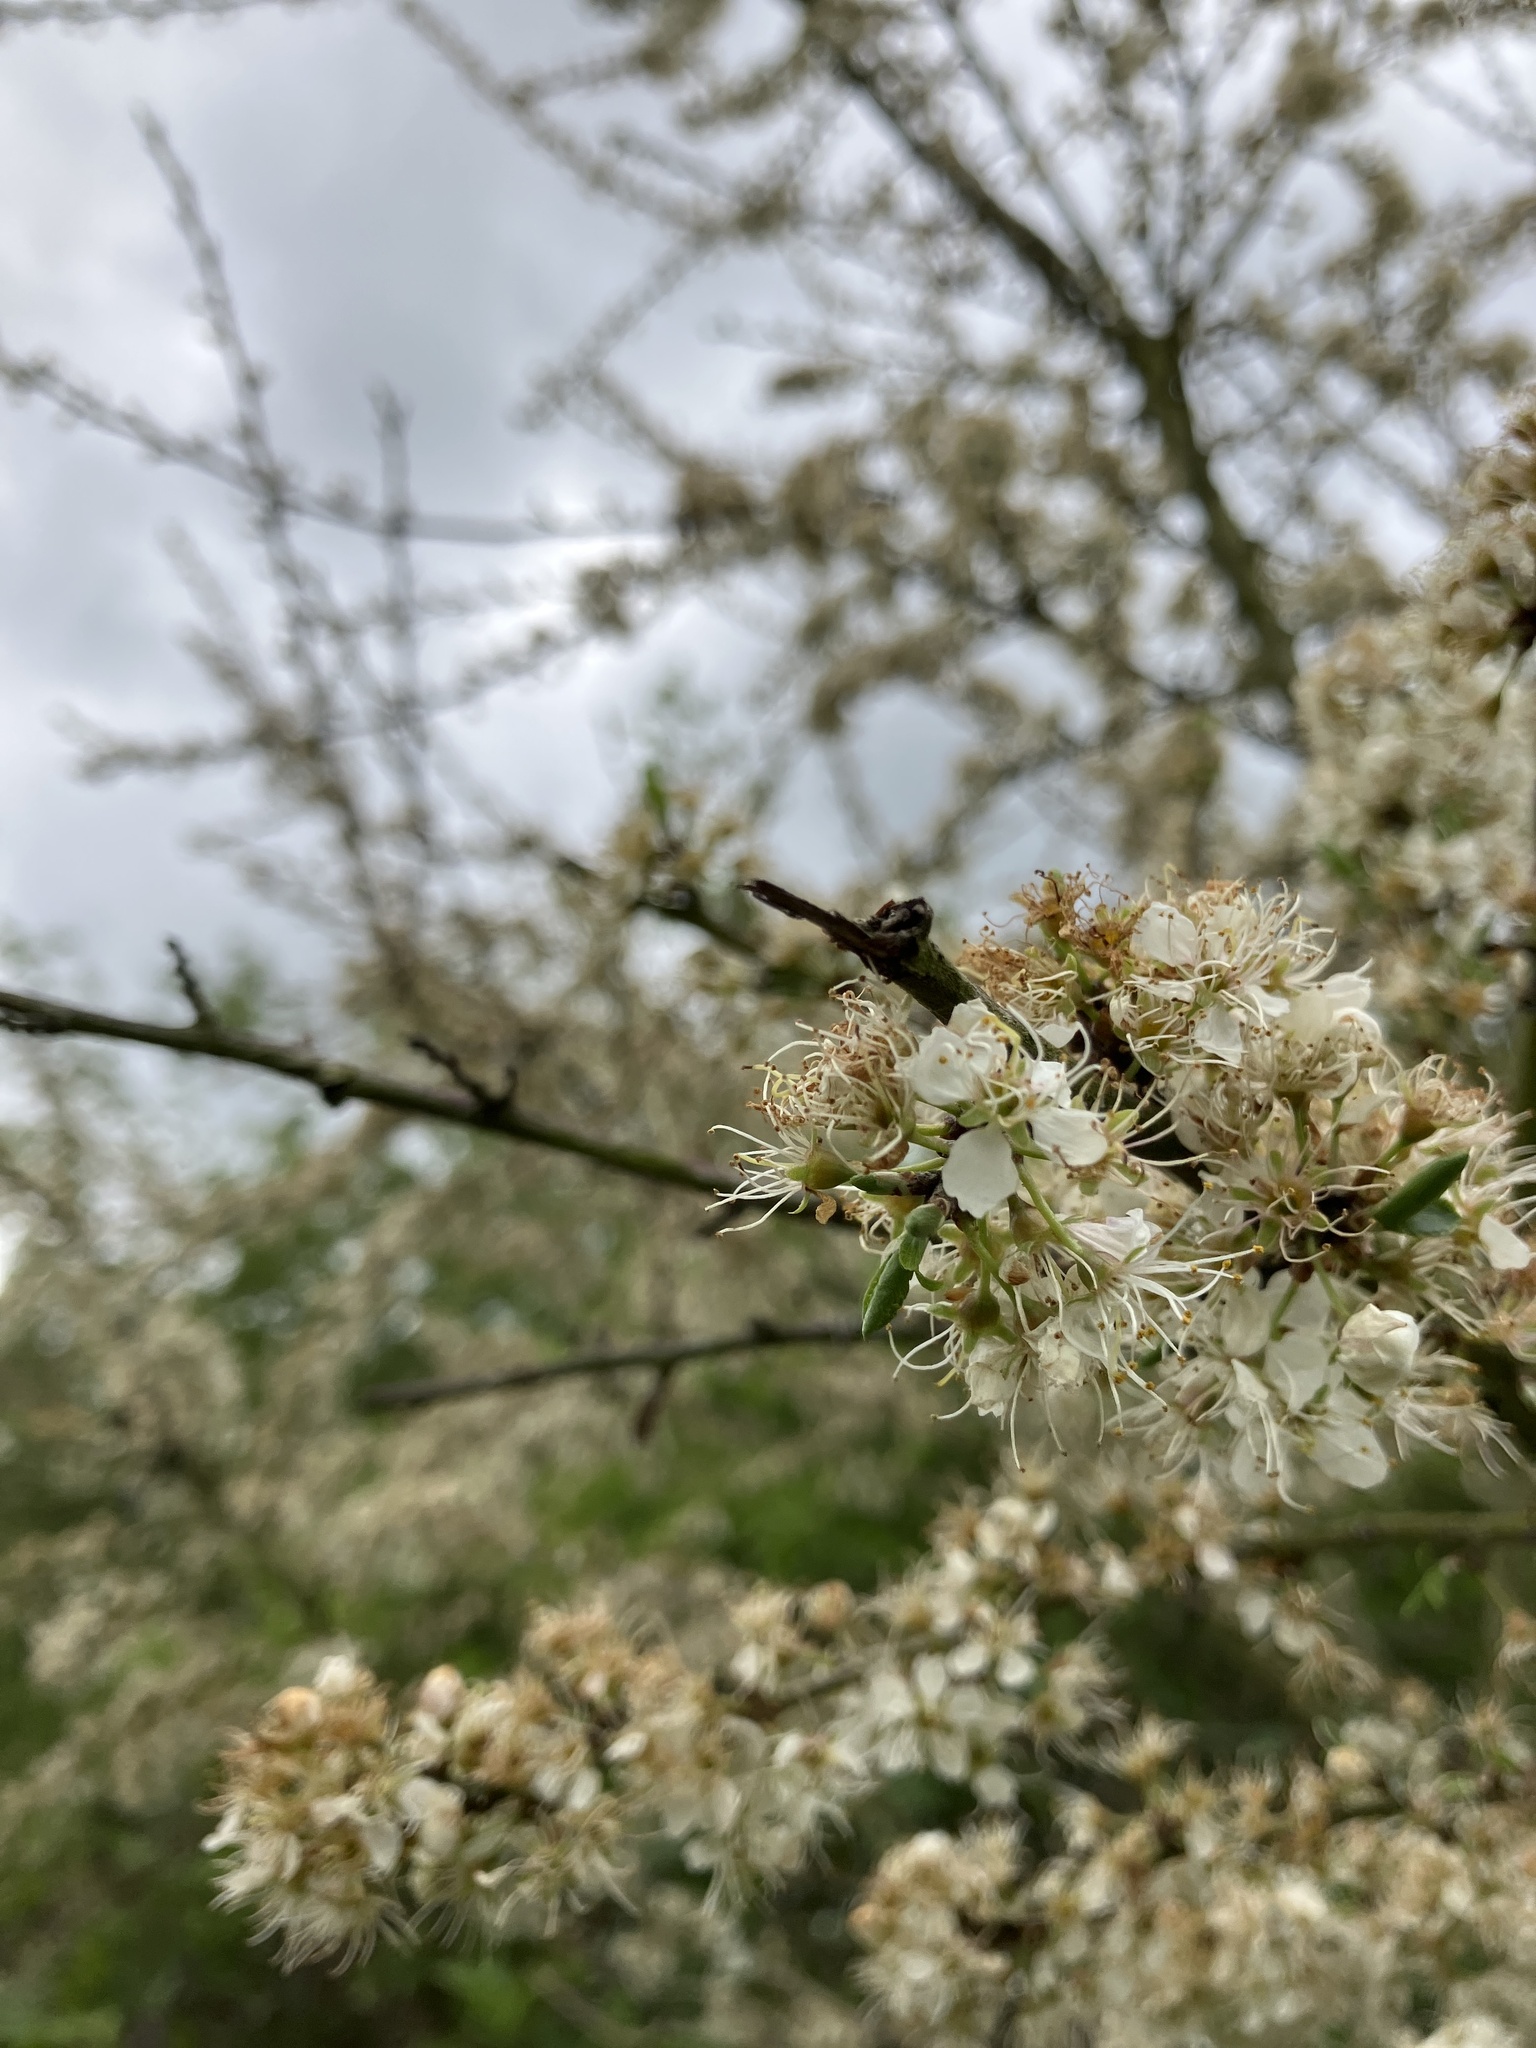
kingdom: Plantae
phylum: Tracheophyta
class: Magnoliopsida
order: Rosales
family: Rosaceae
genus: Prunus
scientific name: Prunus spinosa
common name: Blackthorn
